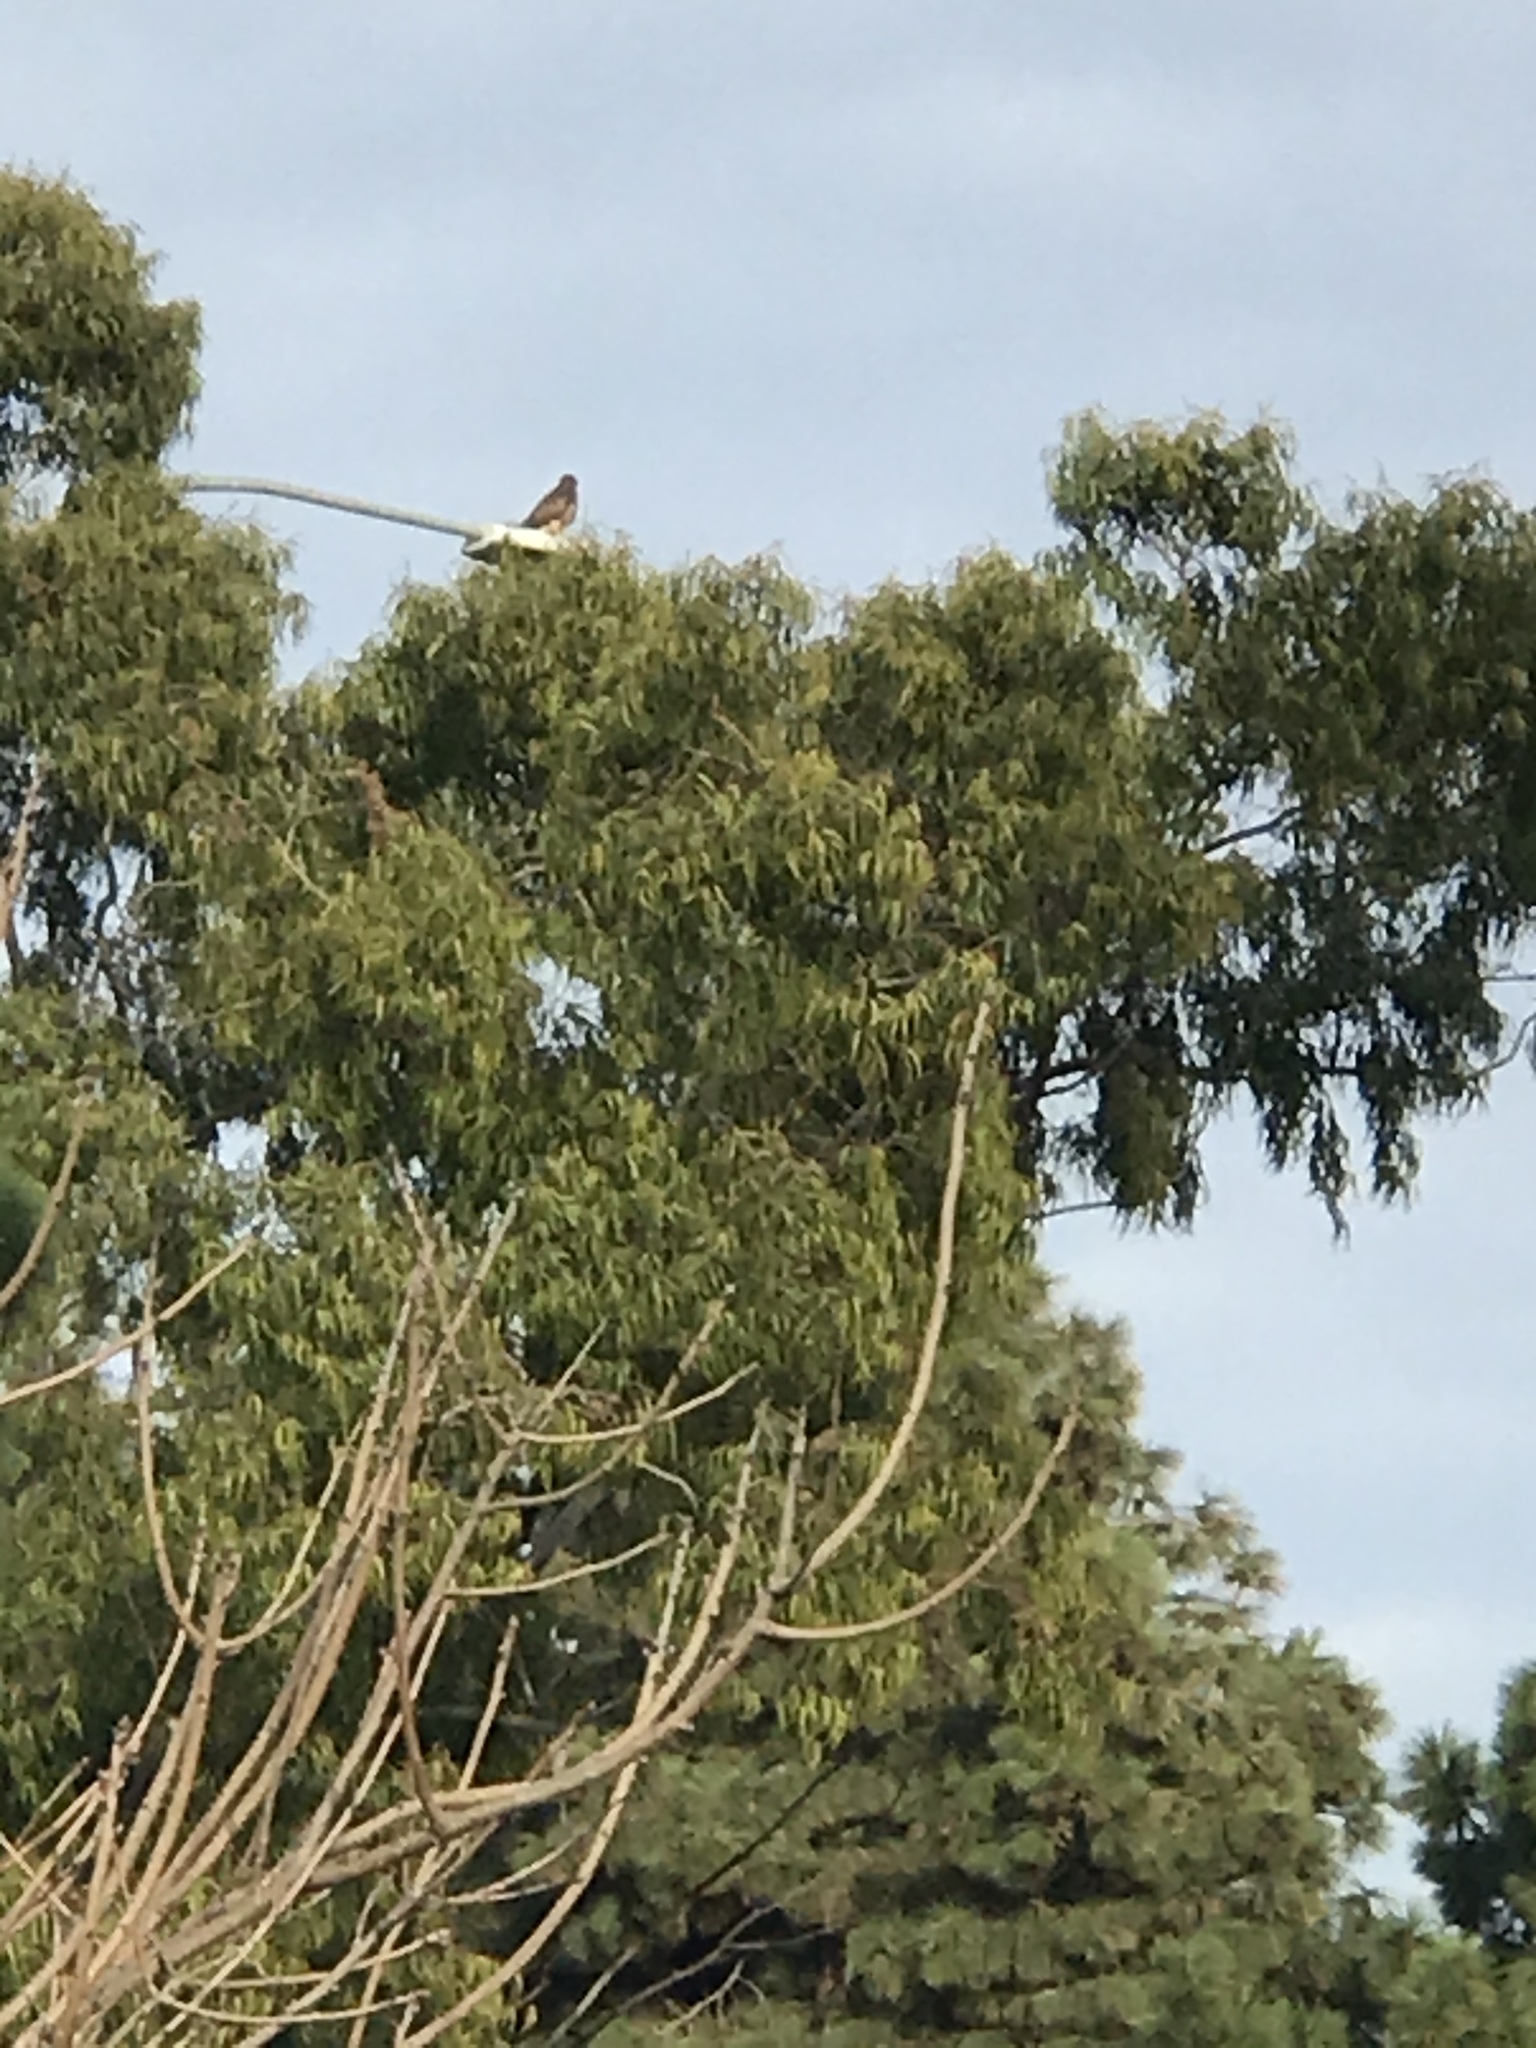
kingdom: Animalia
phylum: Chordata
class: Aves
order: Accipitriformes
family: Accipitridae
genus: Buteo
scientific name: Buteo jamaicensis
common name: Red-tailed hawk
